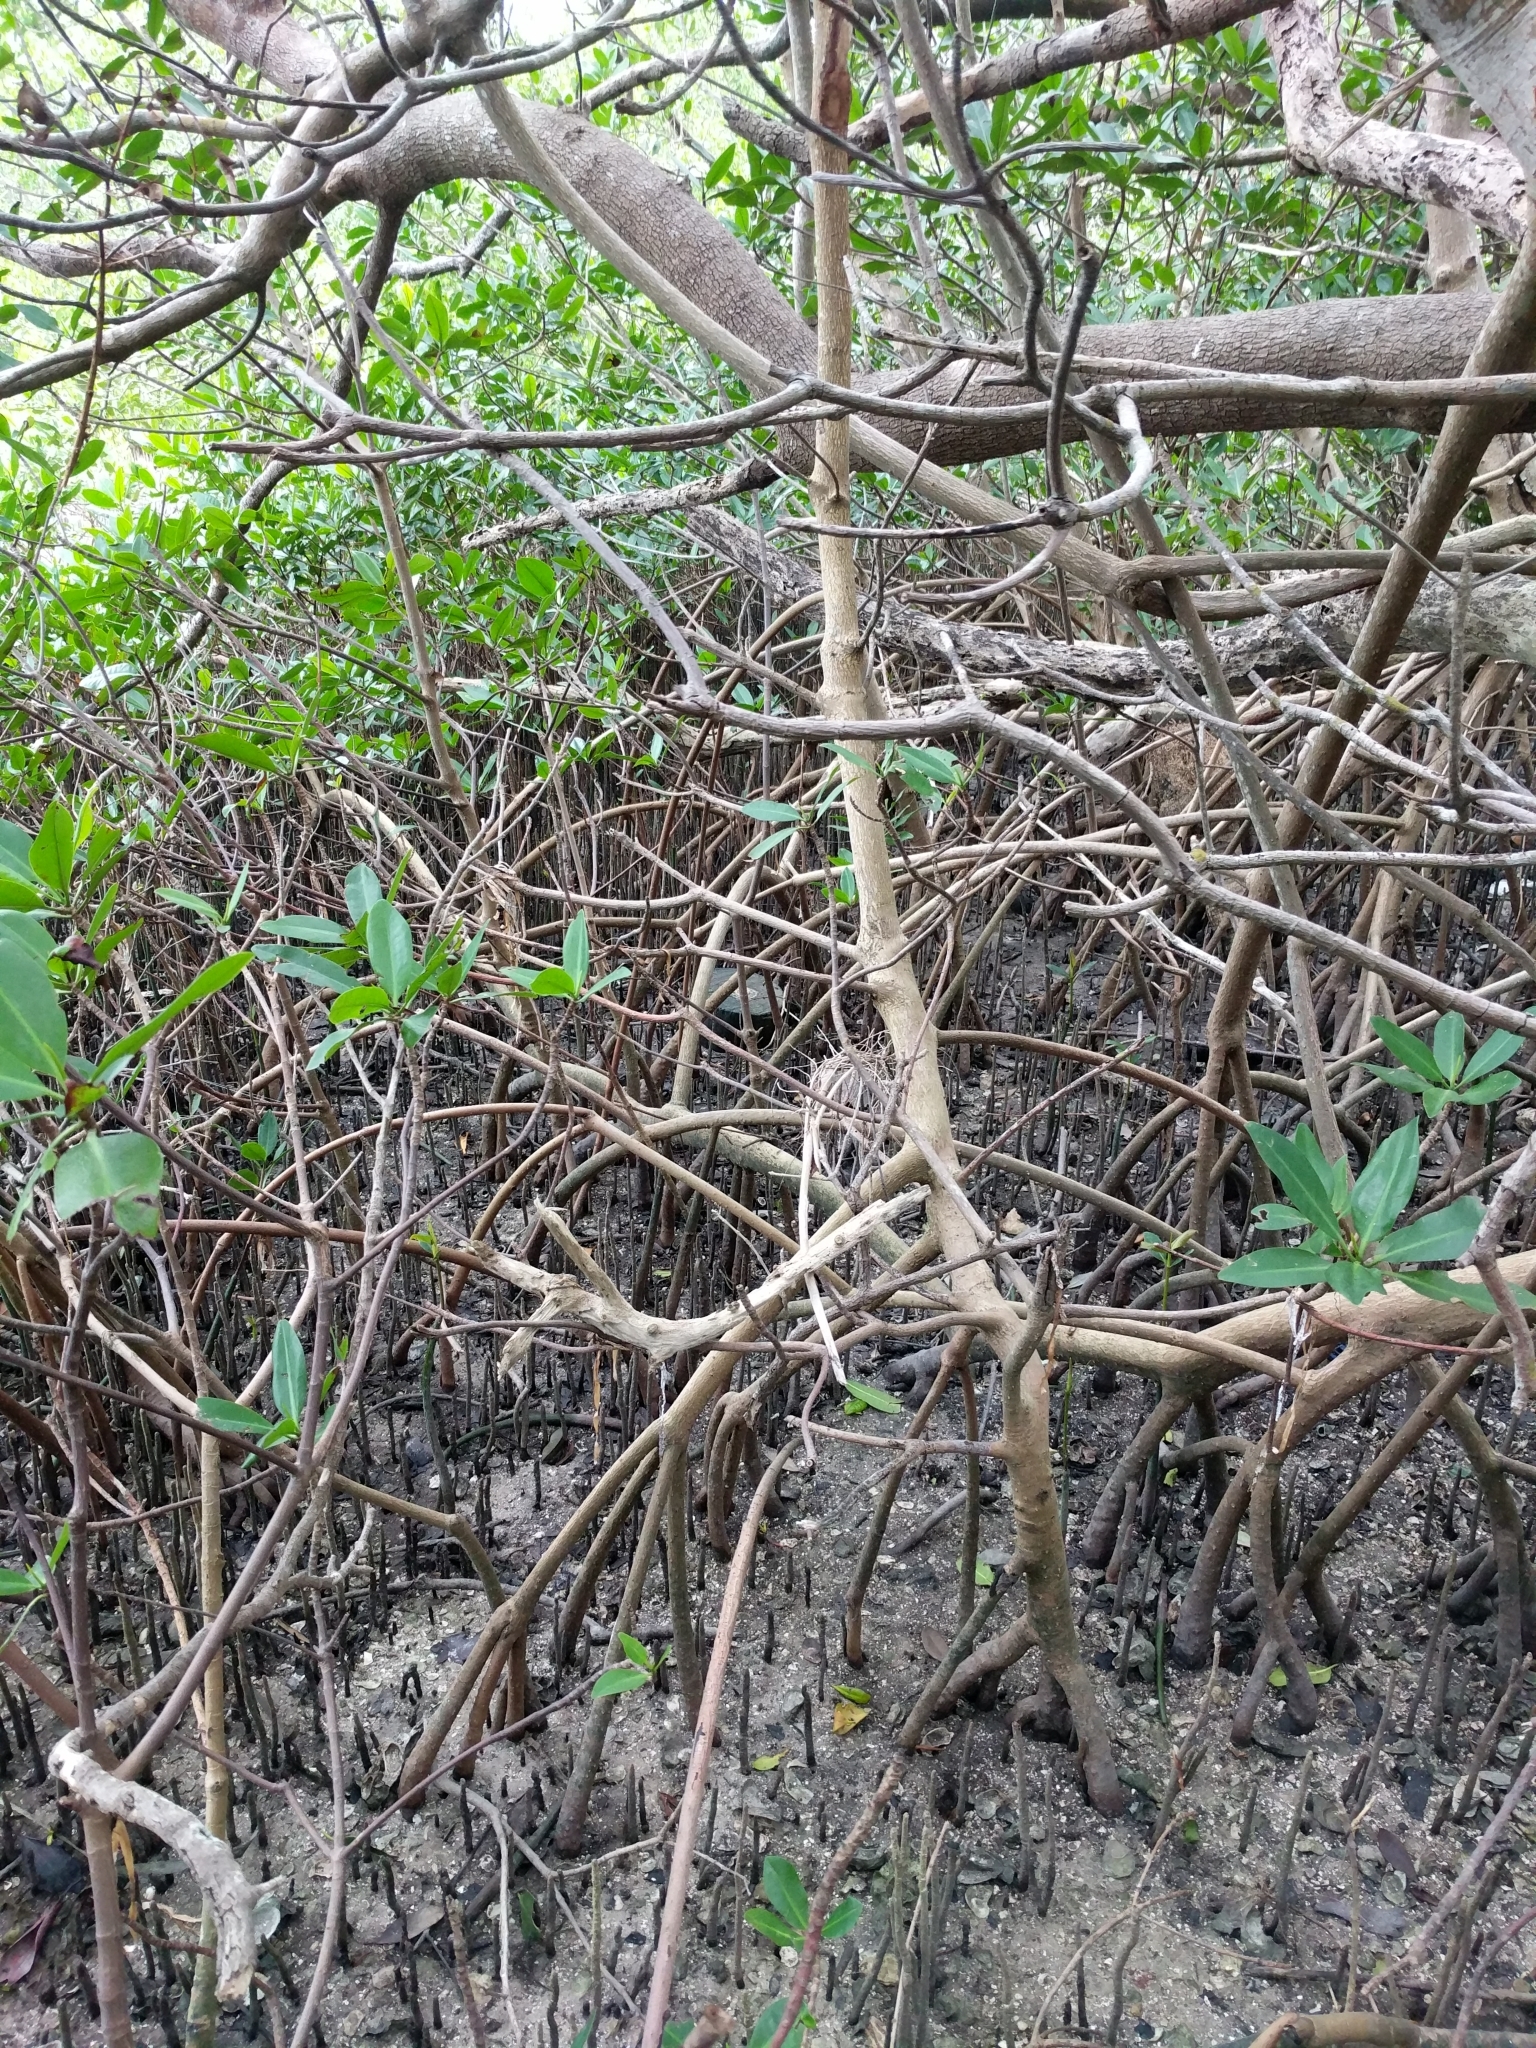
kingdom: Plantae
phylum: Tracheophyta
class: Magnoliopsida
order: Malpighiales
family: Rhizophoraceae
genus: Rhizophora
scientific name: Rhizophora mangle
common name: Red mangrove
